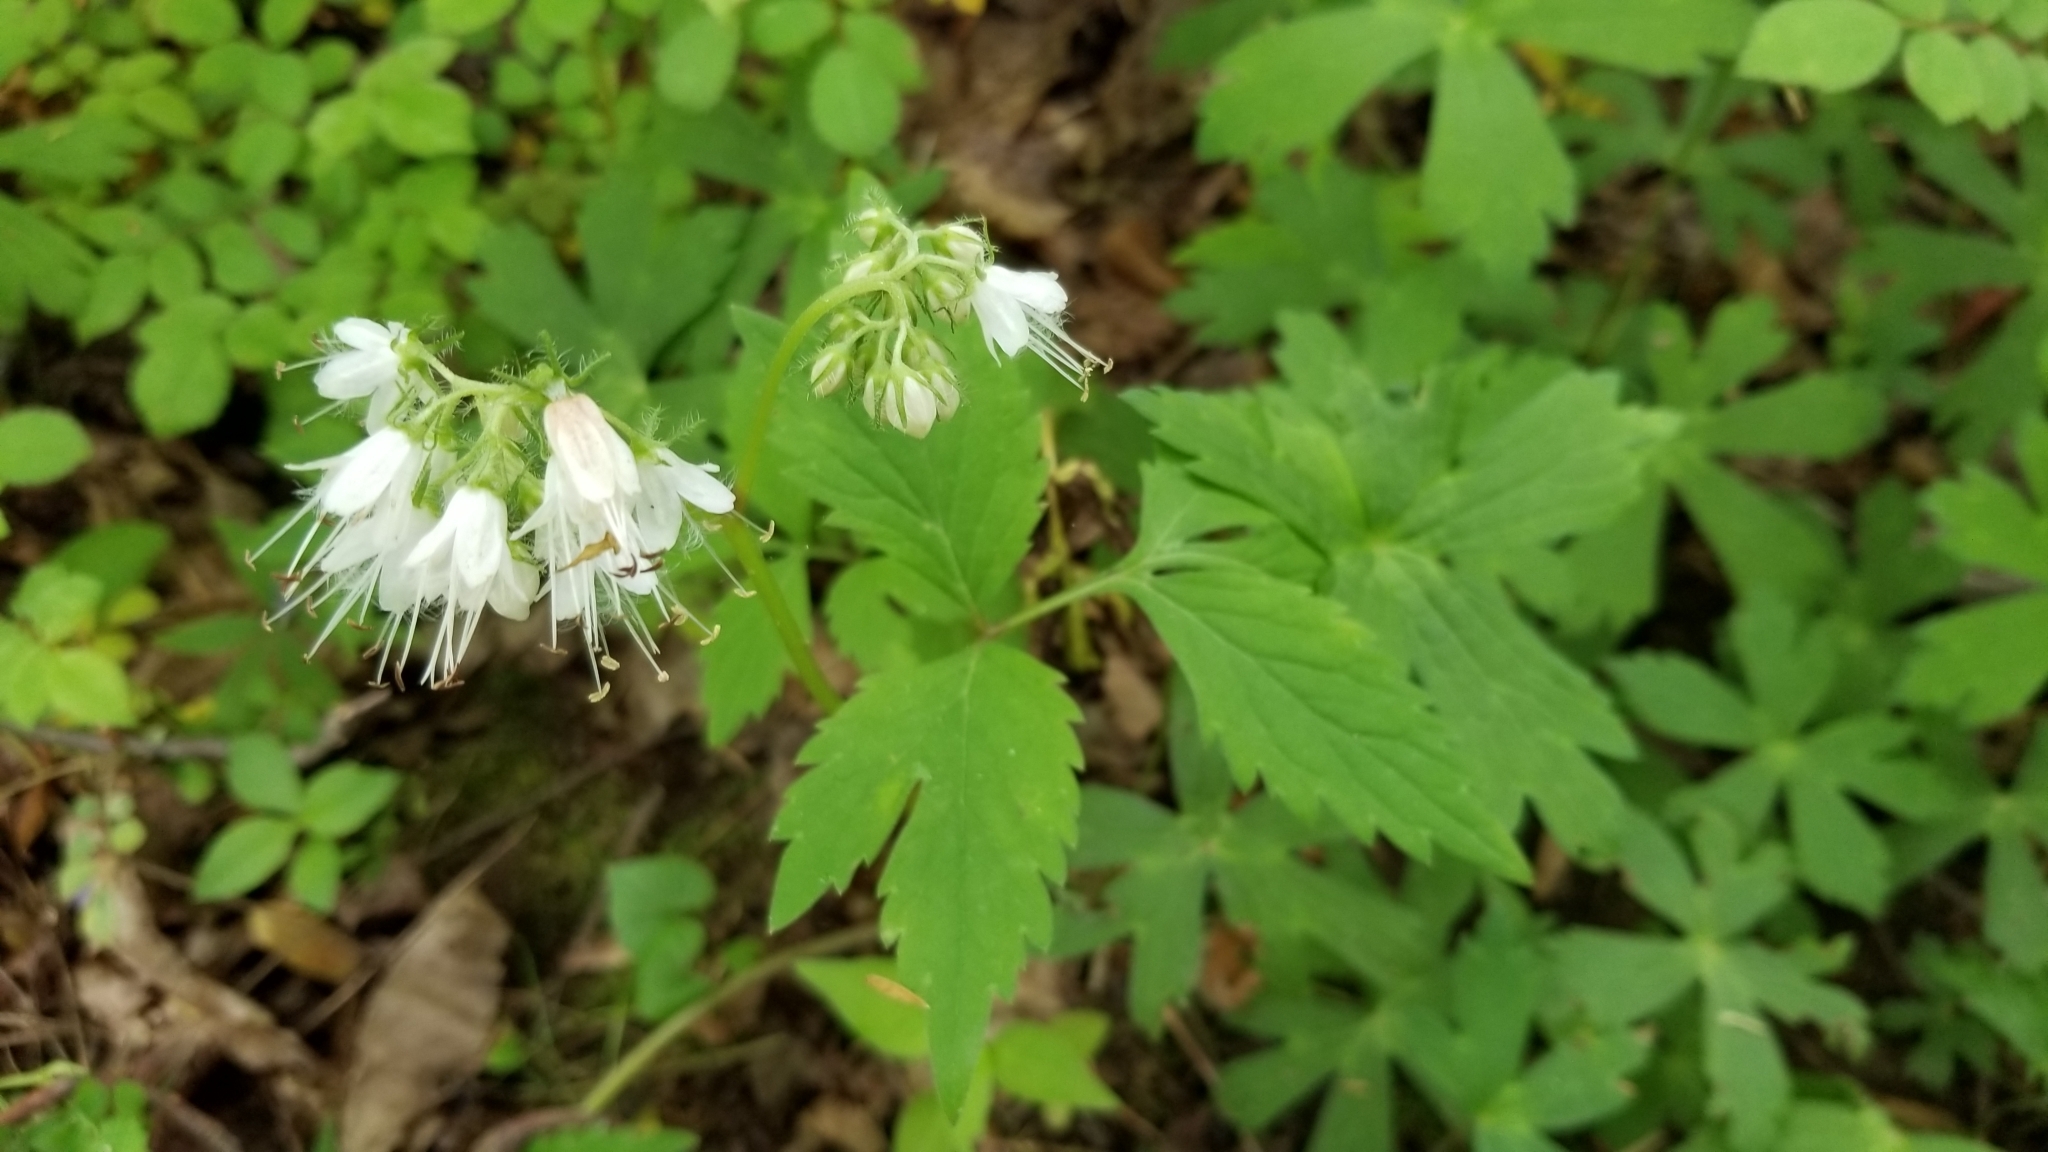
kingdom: Plantae
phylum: Tracheophyta
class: Magnoliopsida
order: Boraginales
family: Hydrophyllaceae
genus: Hydrophyllum
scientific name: Hydrophyllum virginianum
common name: Virginia waterleaf
